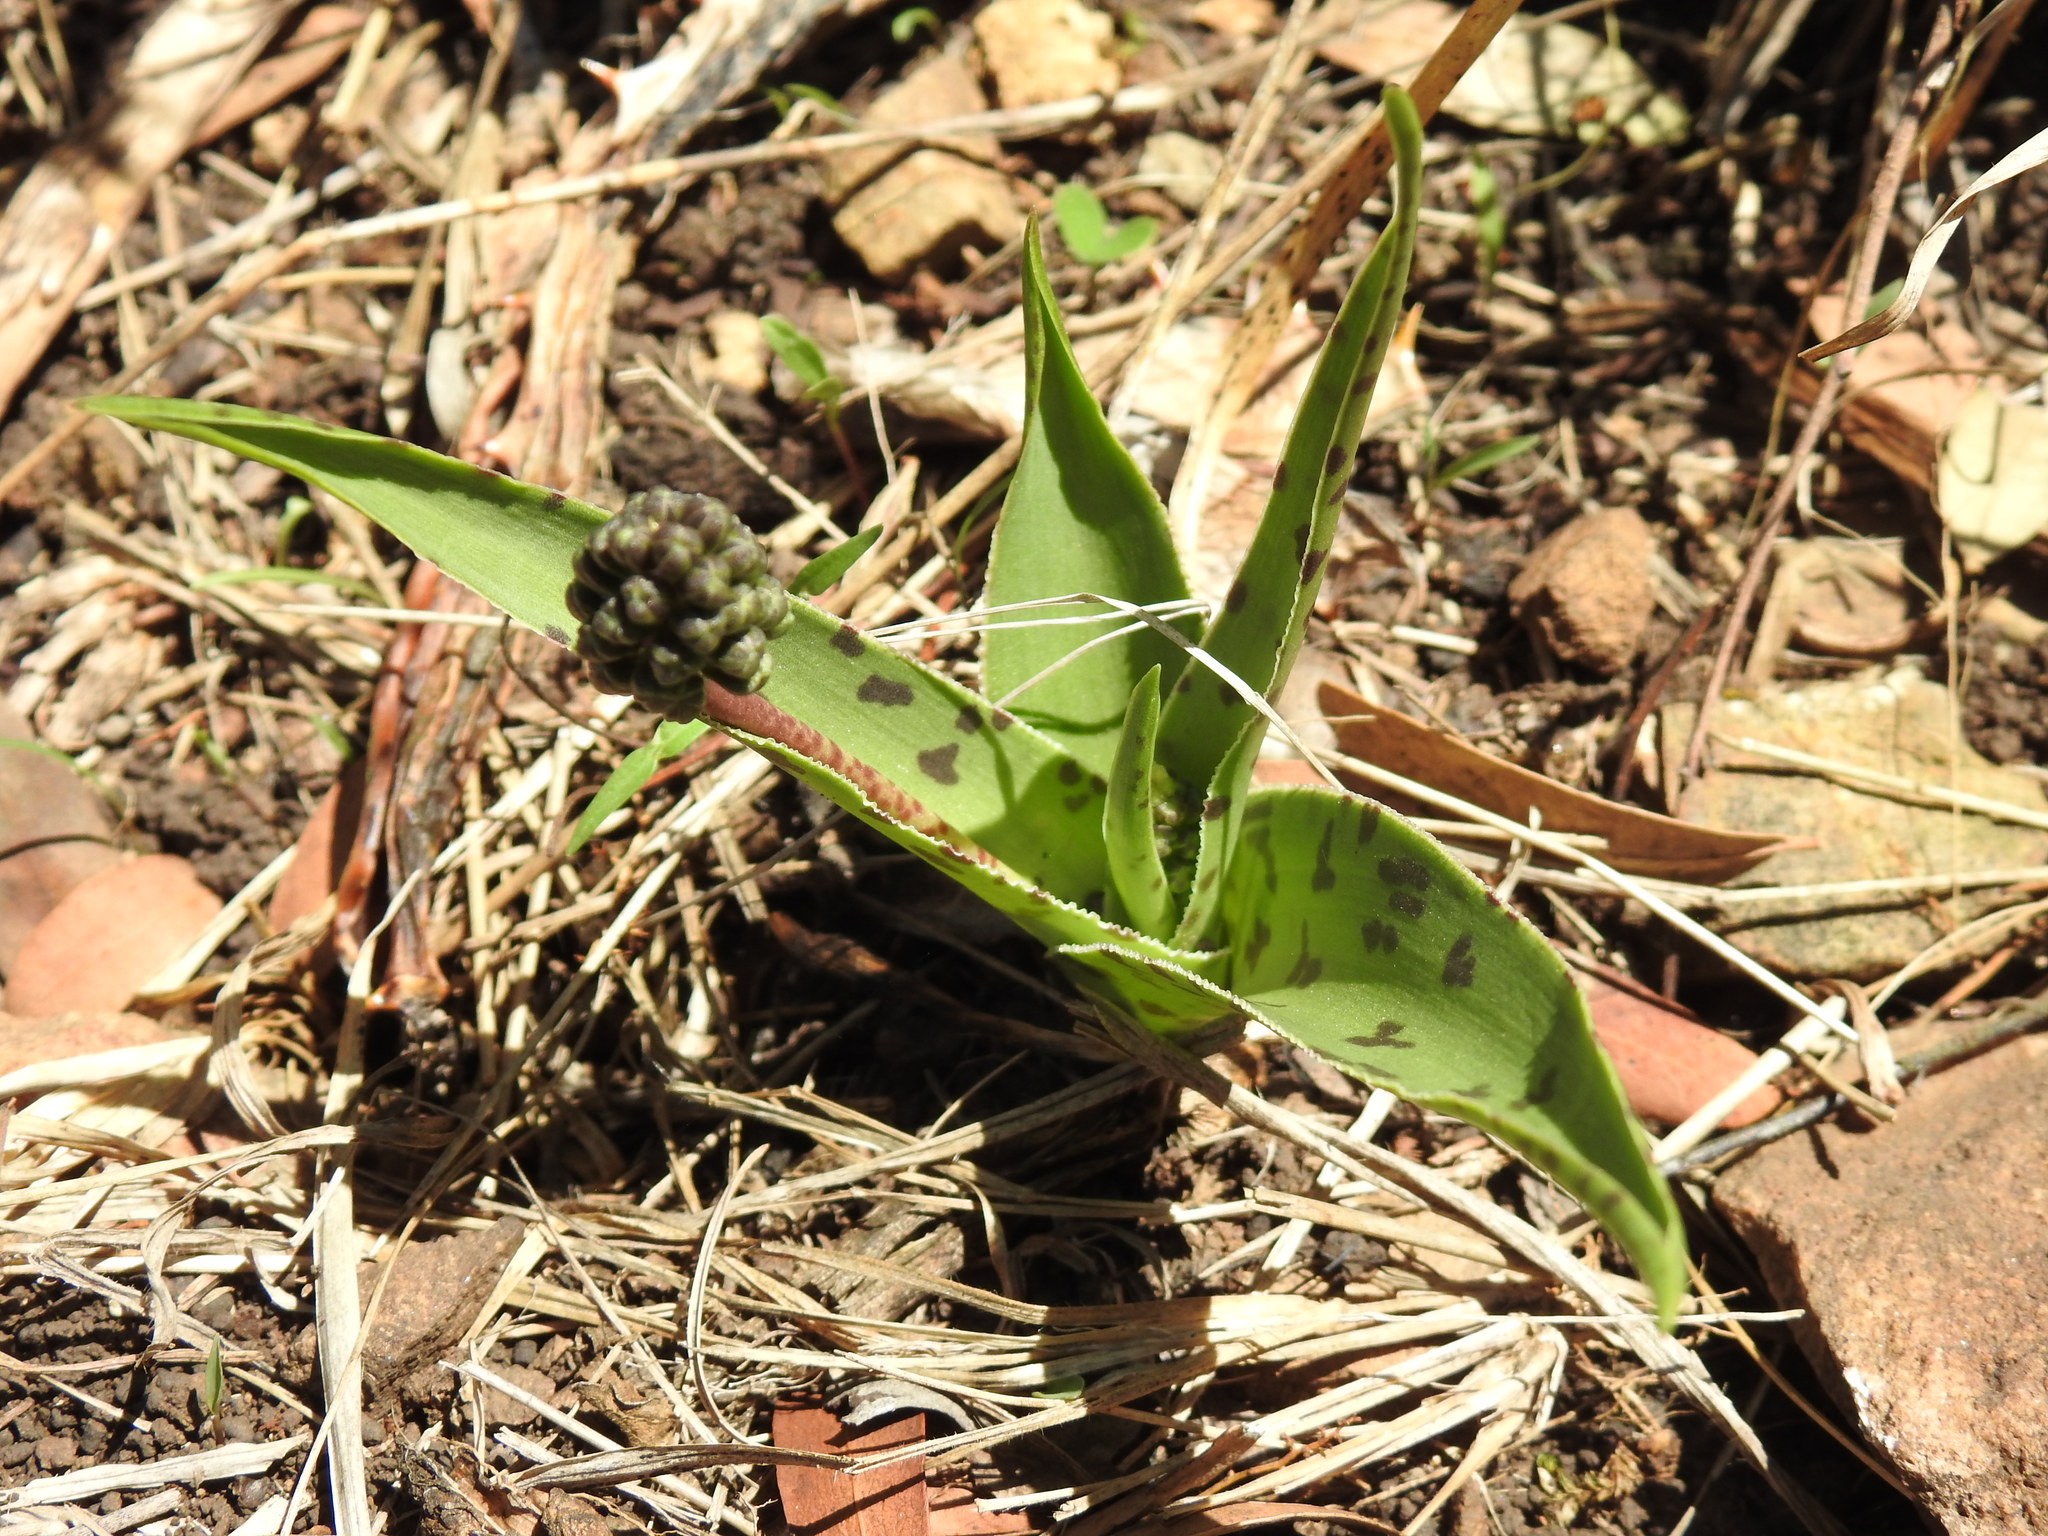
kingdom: Plantae
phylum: Tracheophyta
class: Liliopsida
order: Asparagales
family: Asparagaceae
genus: Ledebouria
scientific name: Ledebouria luteola
